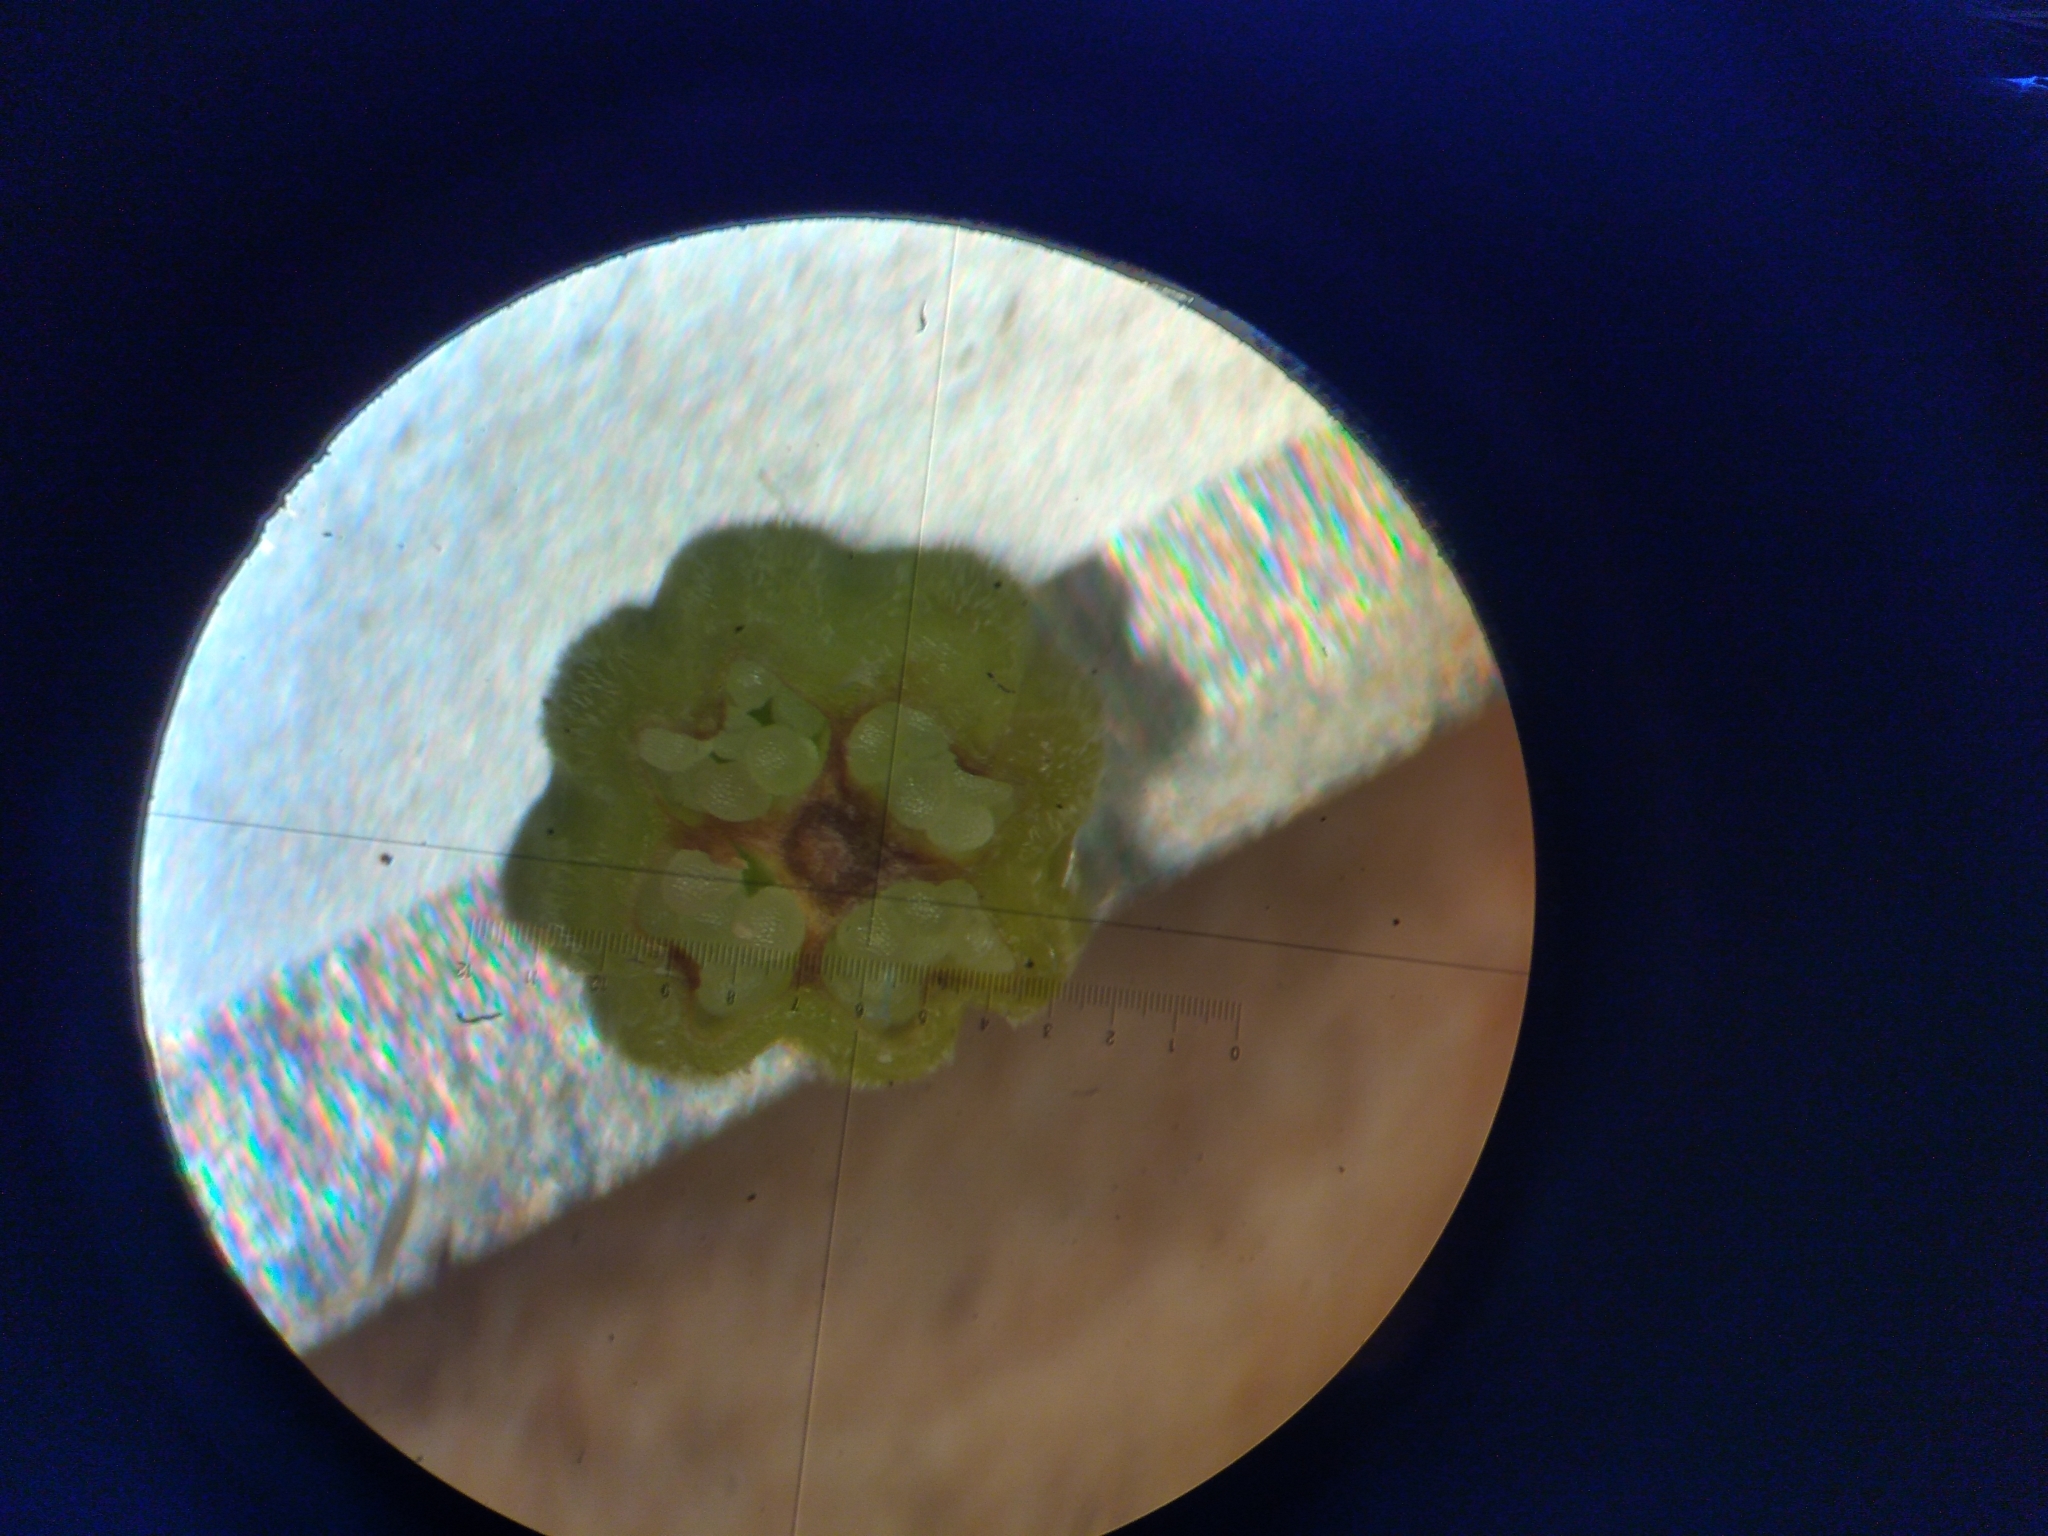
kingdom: Plantae
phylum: Tracheophyta
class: Magnoliopsida
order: Ericales
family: Ericaceae
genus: Erica
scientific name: Erica situshiemalis
